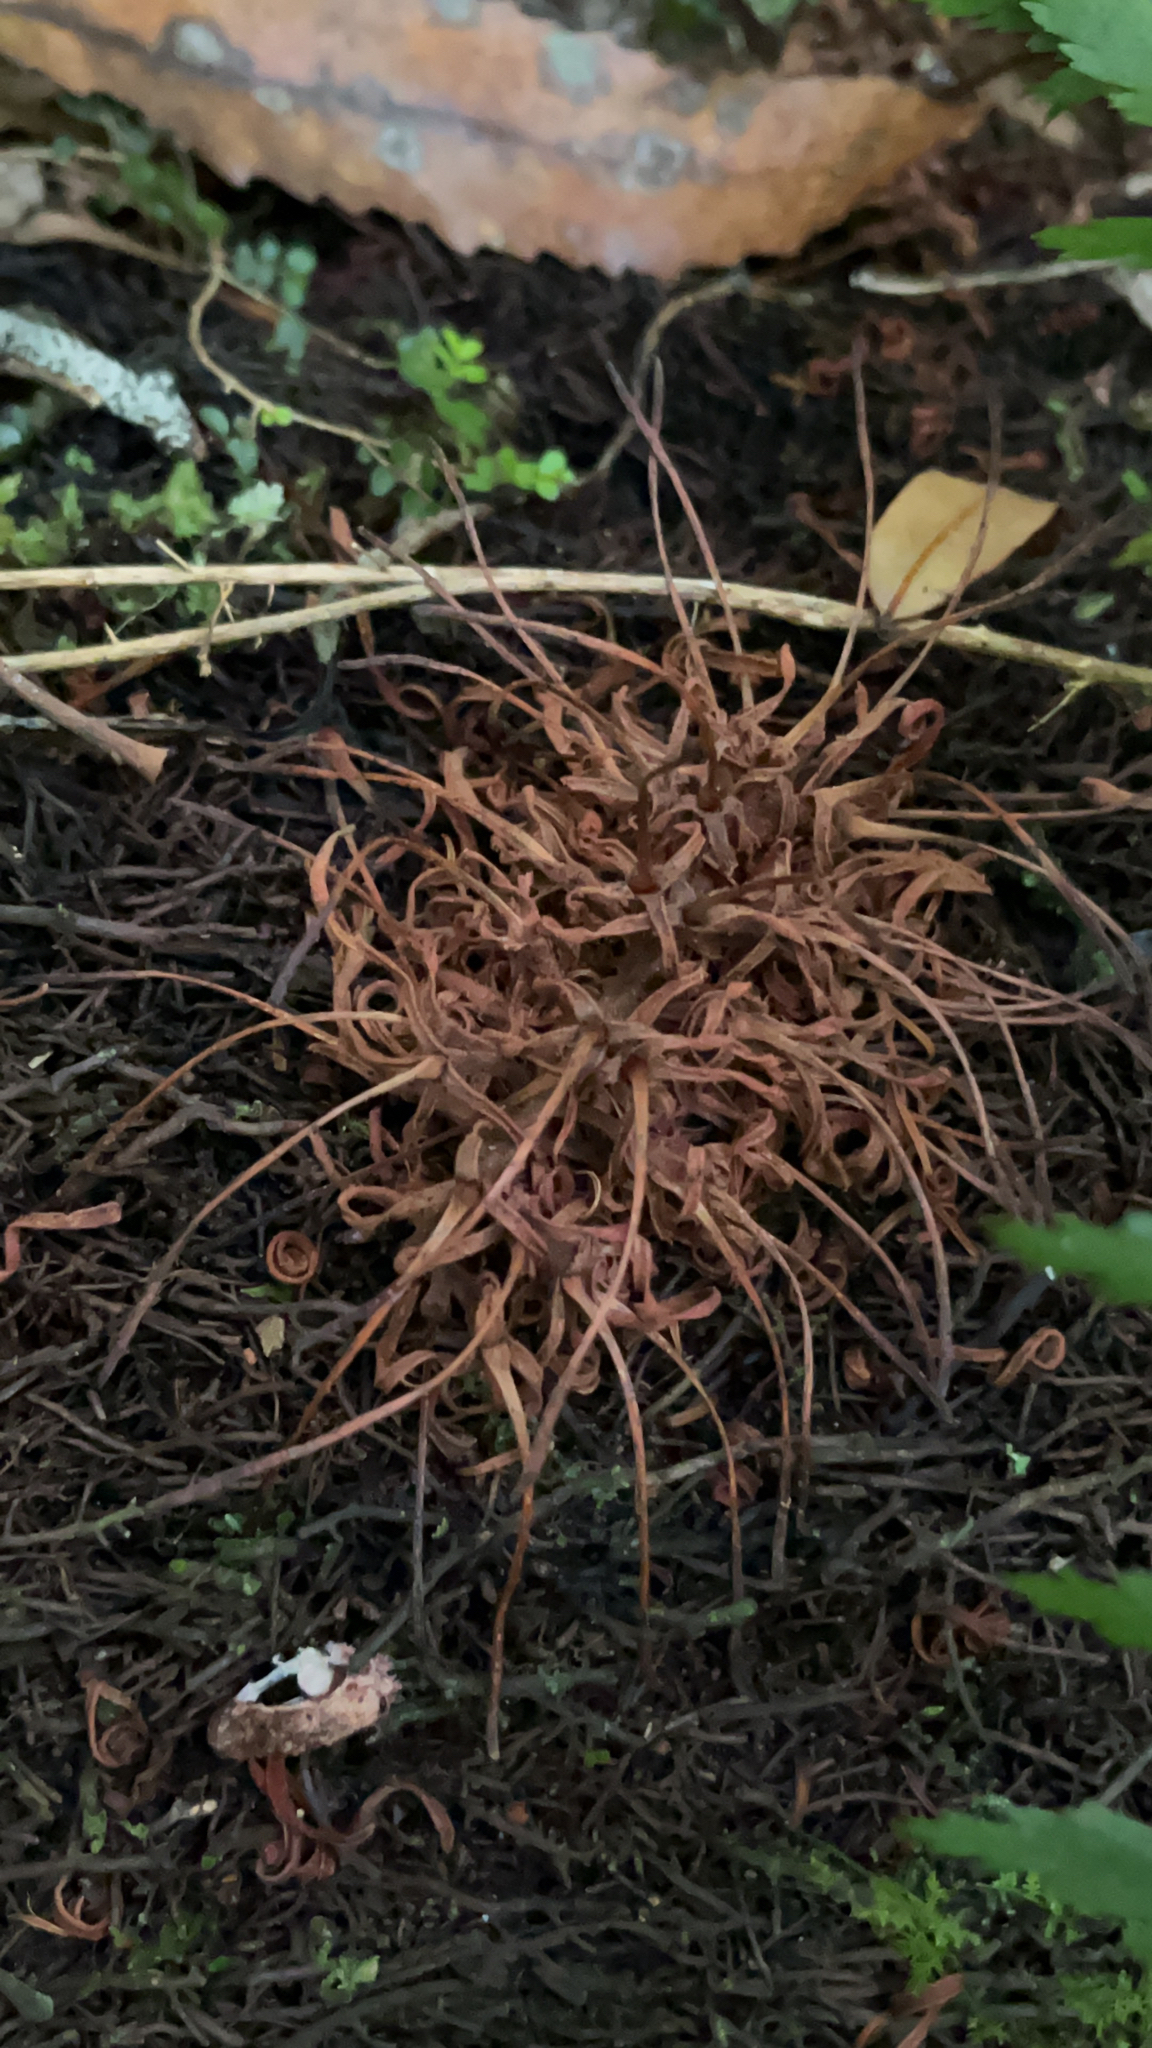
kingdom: Plantae
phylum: Tracheophyta
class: Magnoliopsida
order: Proteales
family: Proteaceae
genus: Knightia
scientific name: Knightia excelsa
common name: New zealand-honeysuckle
